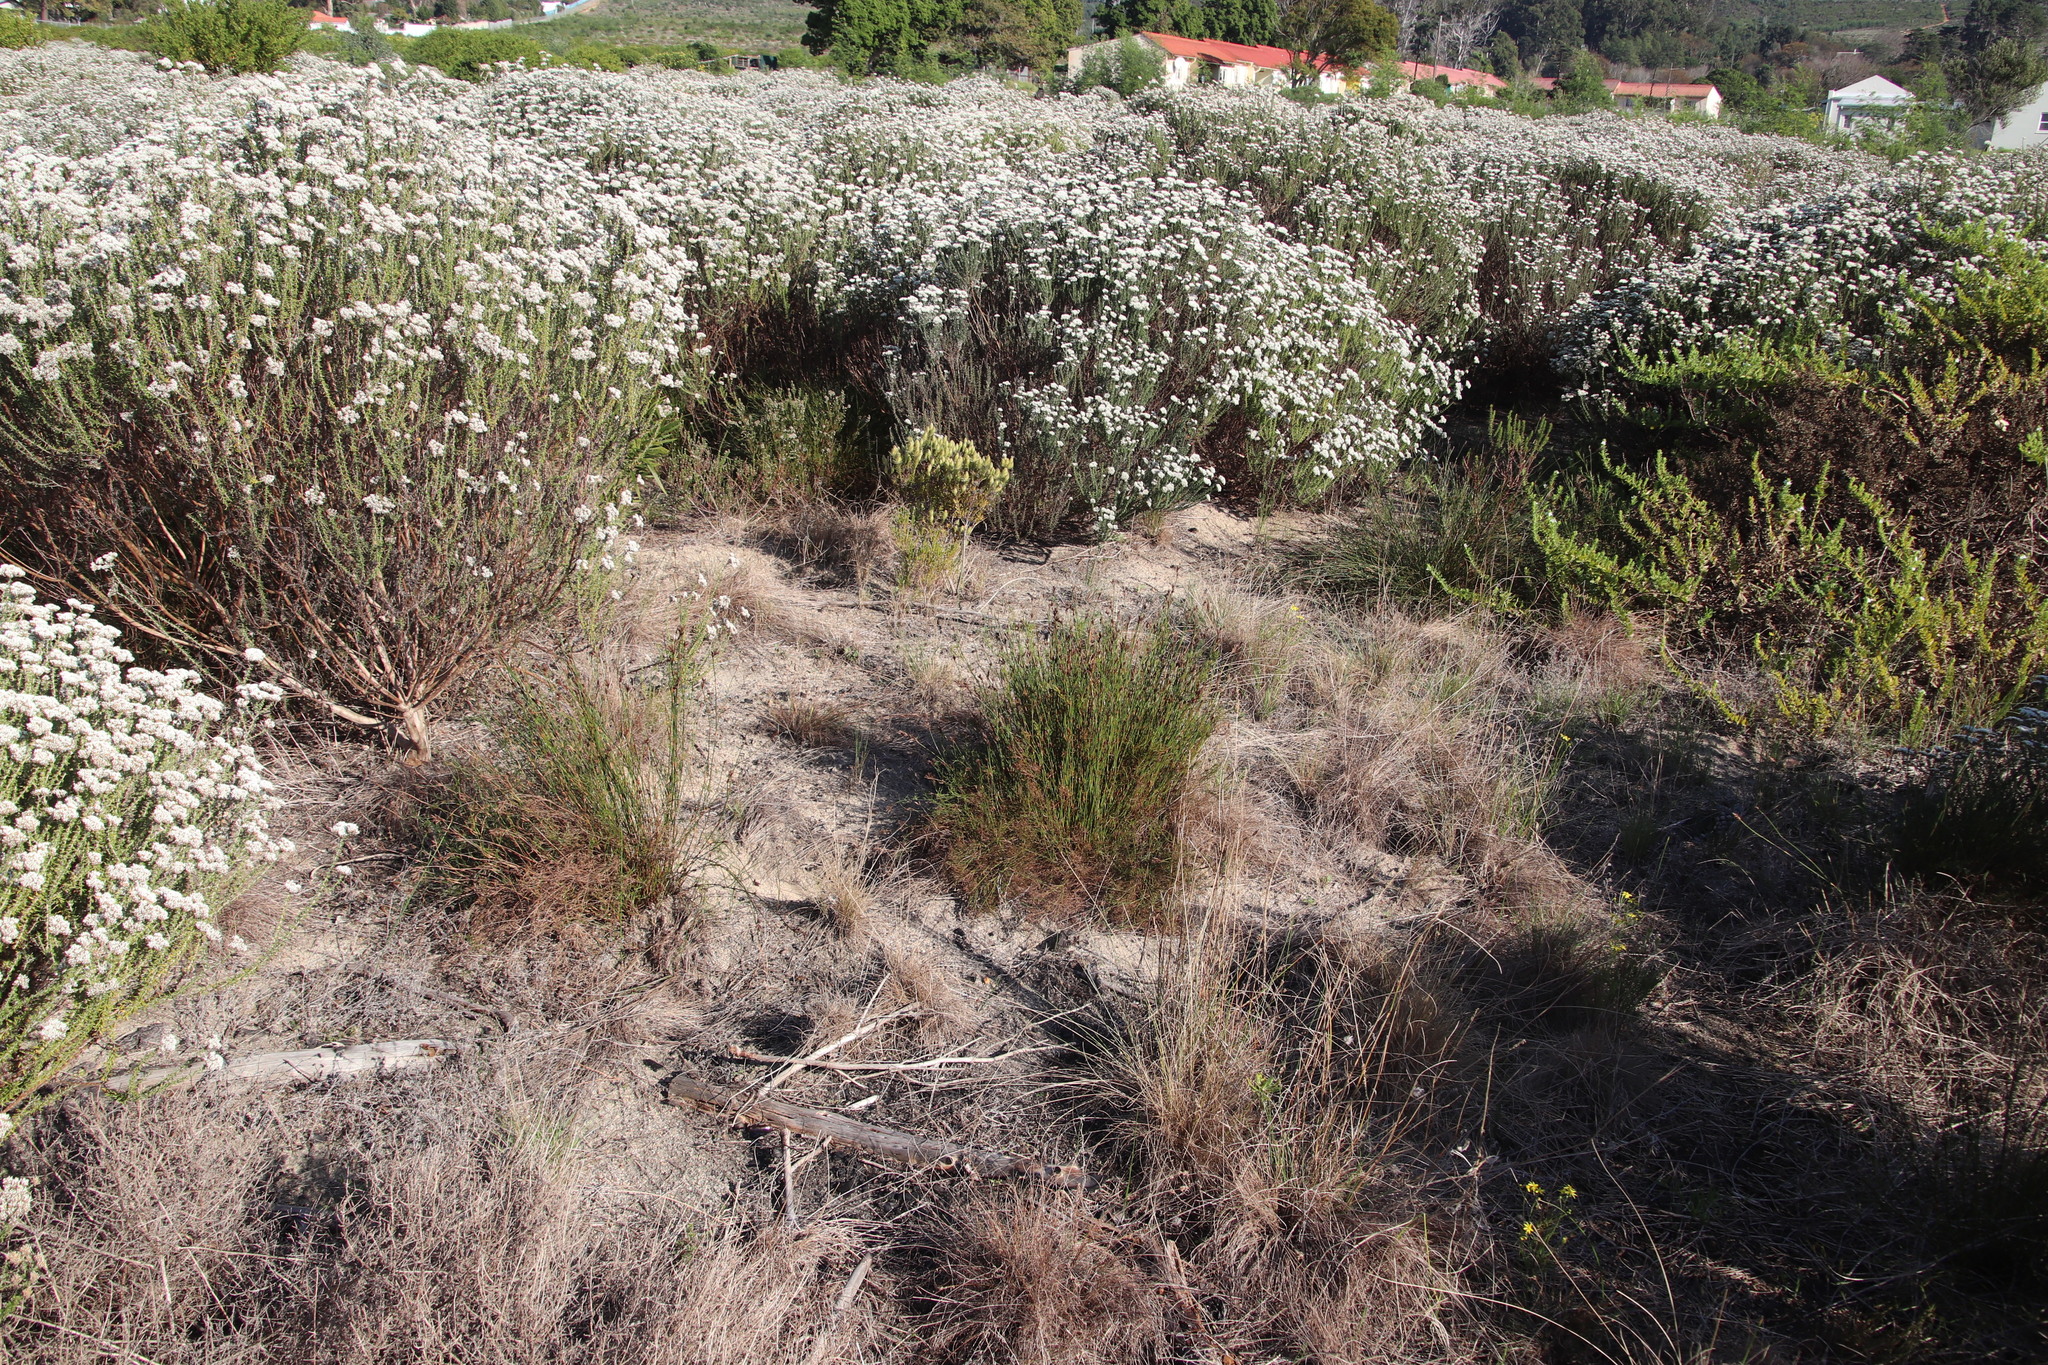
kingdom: Plantae
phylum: Tracheophyta
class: Liliopsida
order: Poales
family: Restionaceae
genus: Restio
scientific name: Restio capensis
